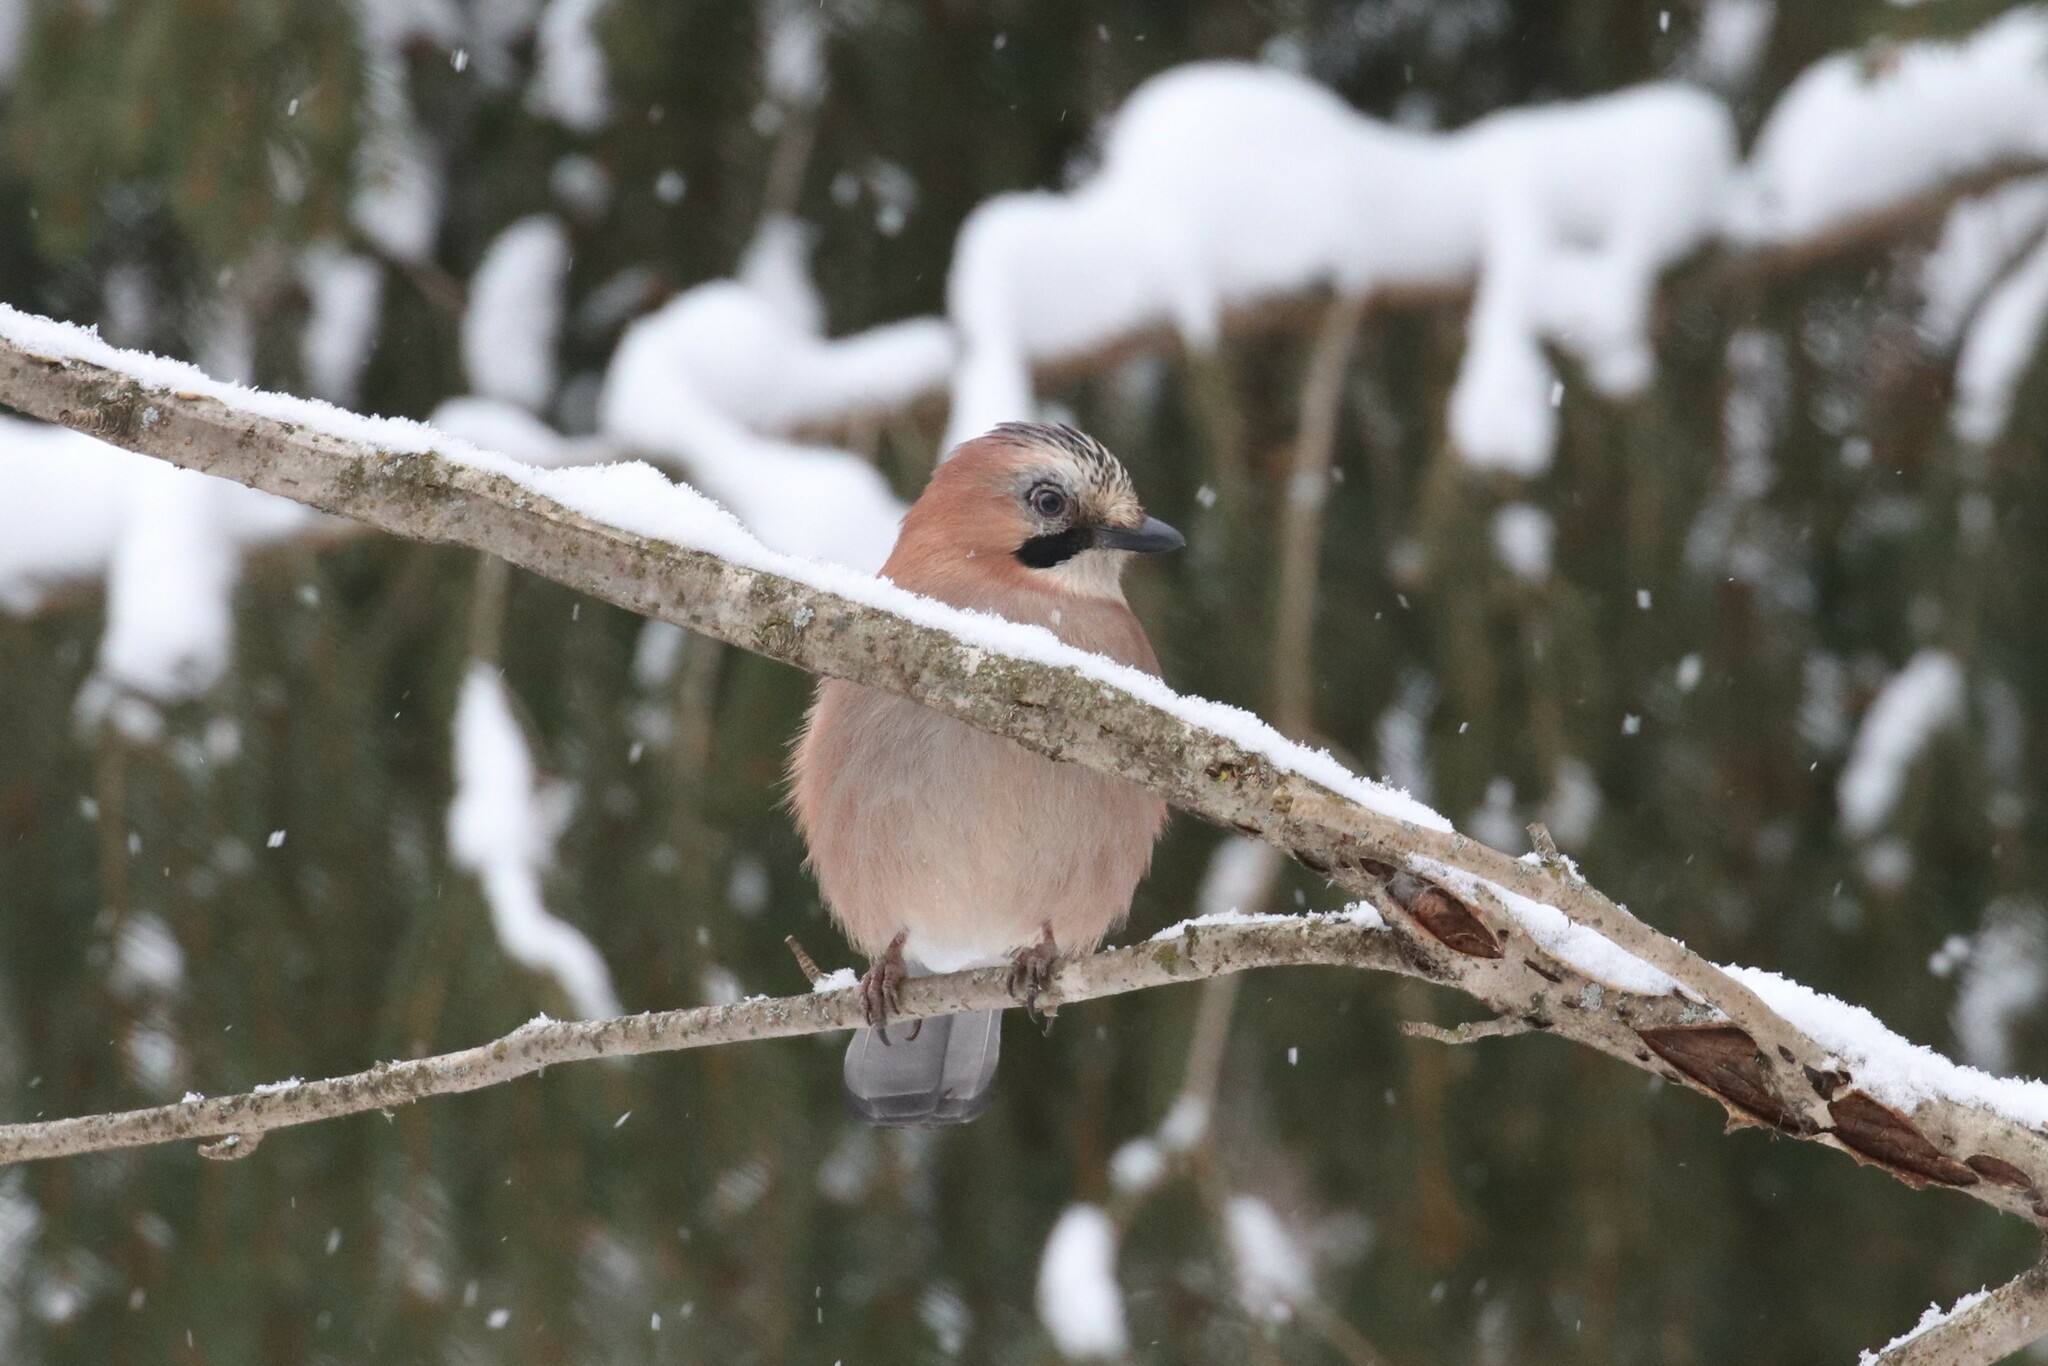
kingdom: Animalia
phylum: Chordata
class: Aves
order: Passeriformes
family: Corvidae
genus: Garrulus
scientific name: Garrulus glandarius
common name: Eurasian jay
